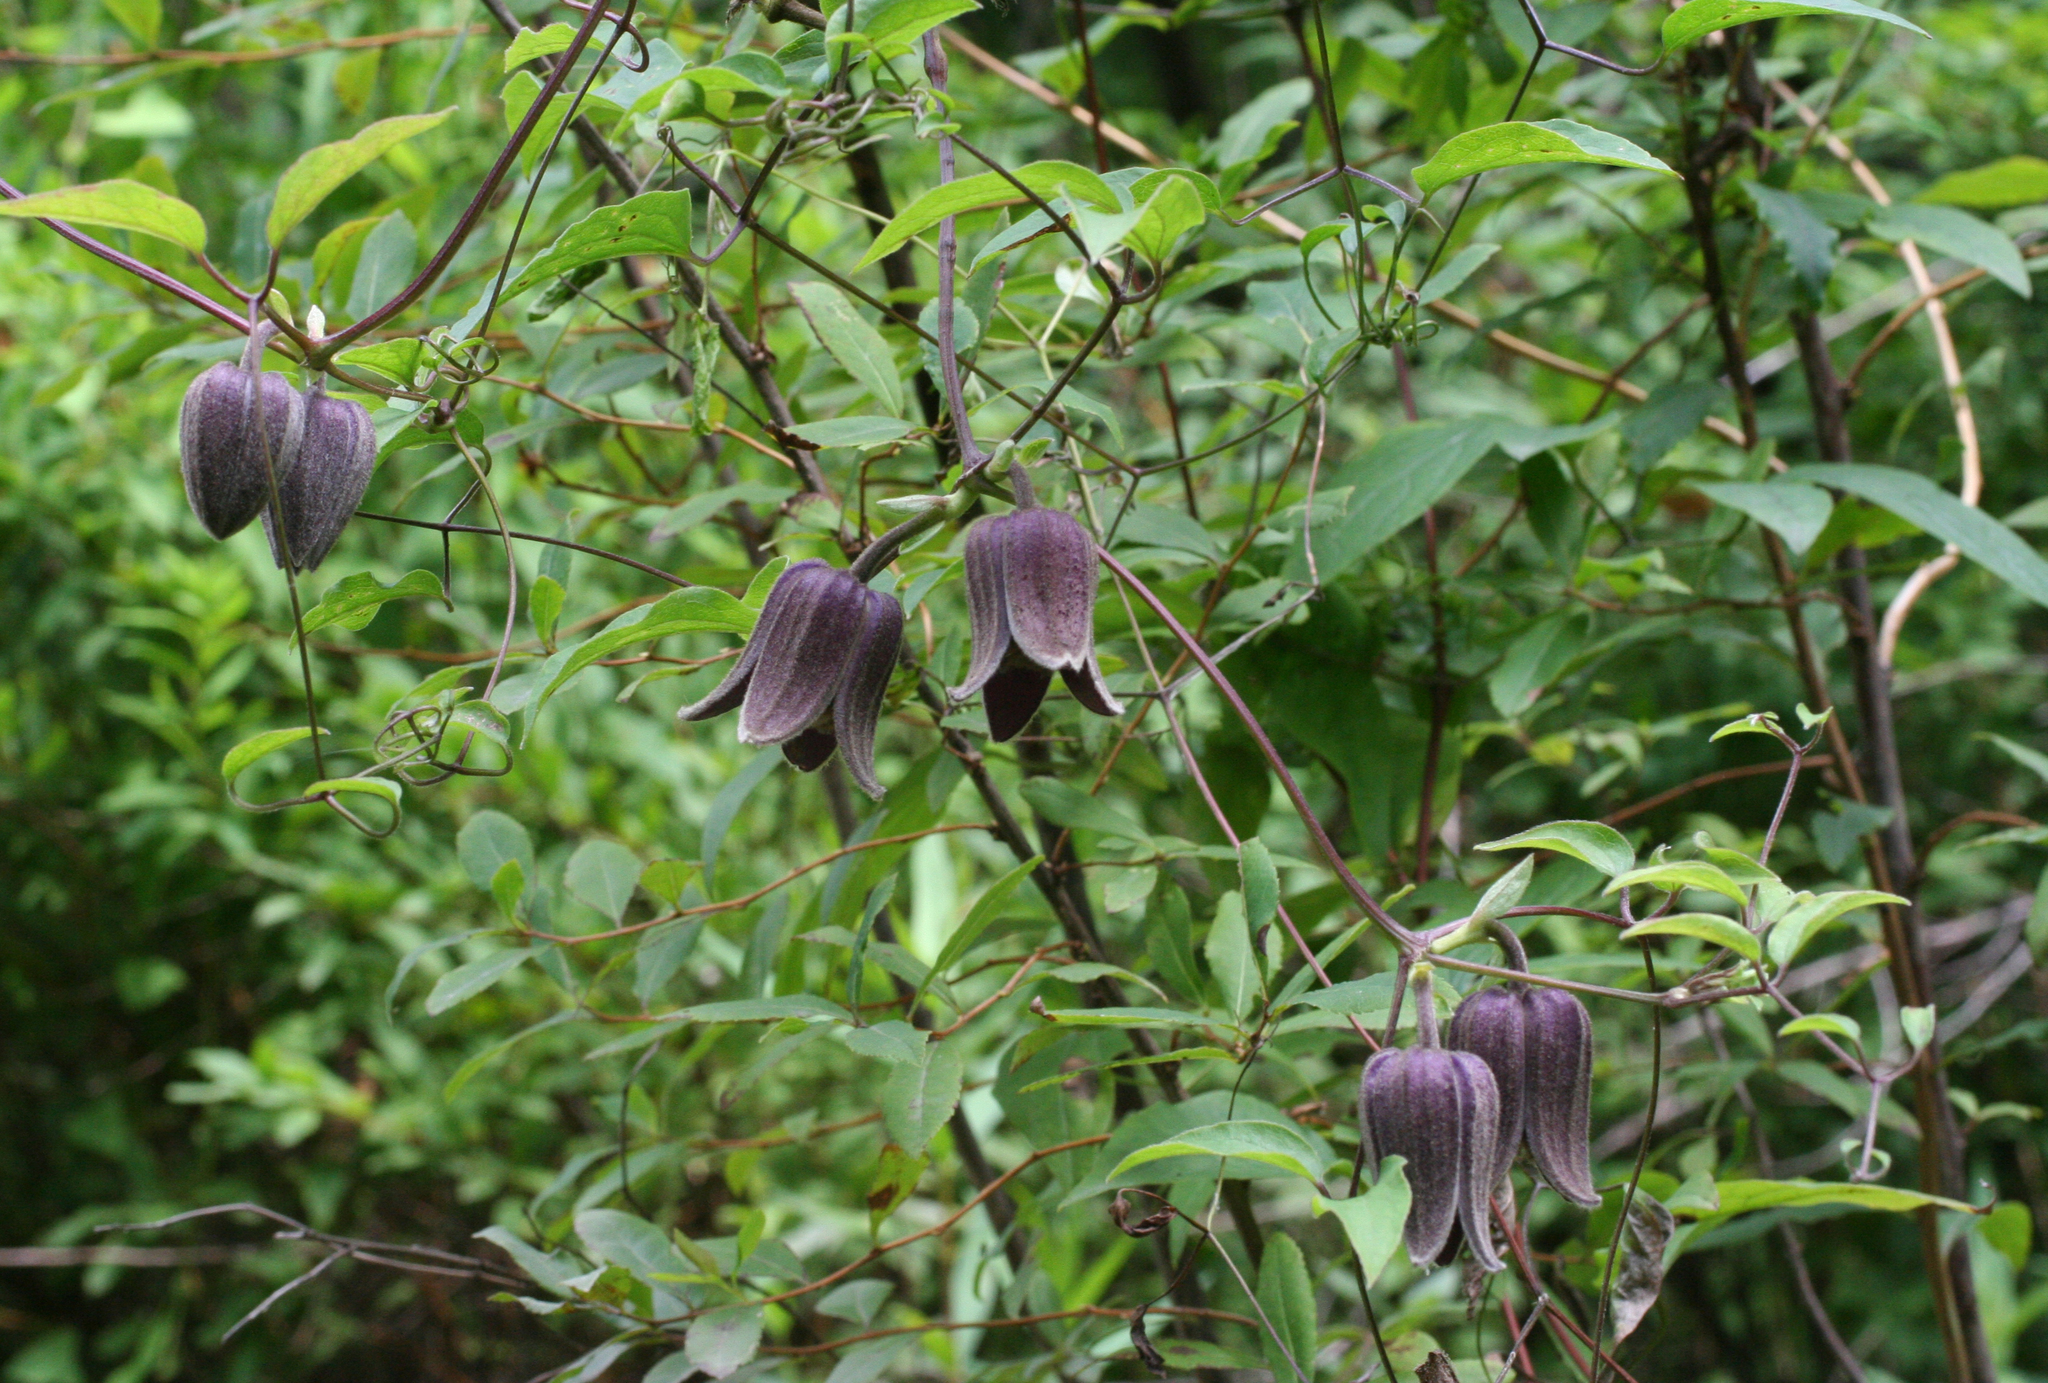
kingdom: Plantae
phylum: Tracheophyta
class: Magnoliopsida
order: Ranunculales
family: Ranunculaceae
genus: Clematis
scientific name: Clematis fusca
